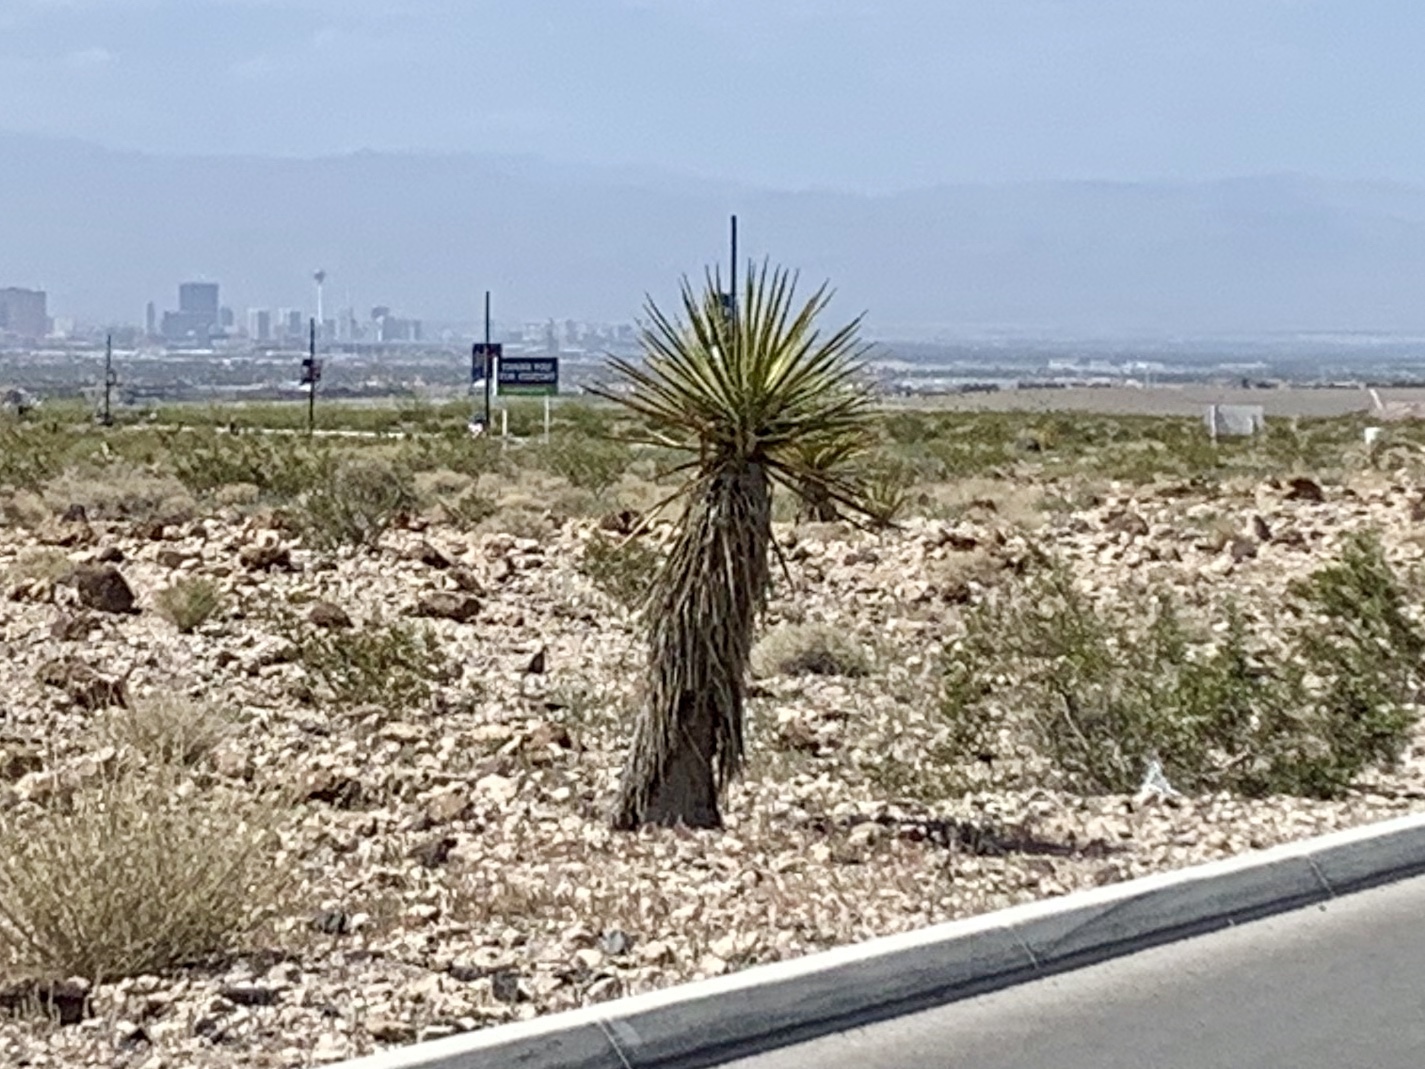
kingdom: Plantae
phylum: Tracheophyta
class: Liliopsida
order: Asparagales
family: Asparagaceae
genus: Yucca
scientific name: Yucca schidigera
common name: Mojave yucca
